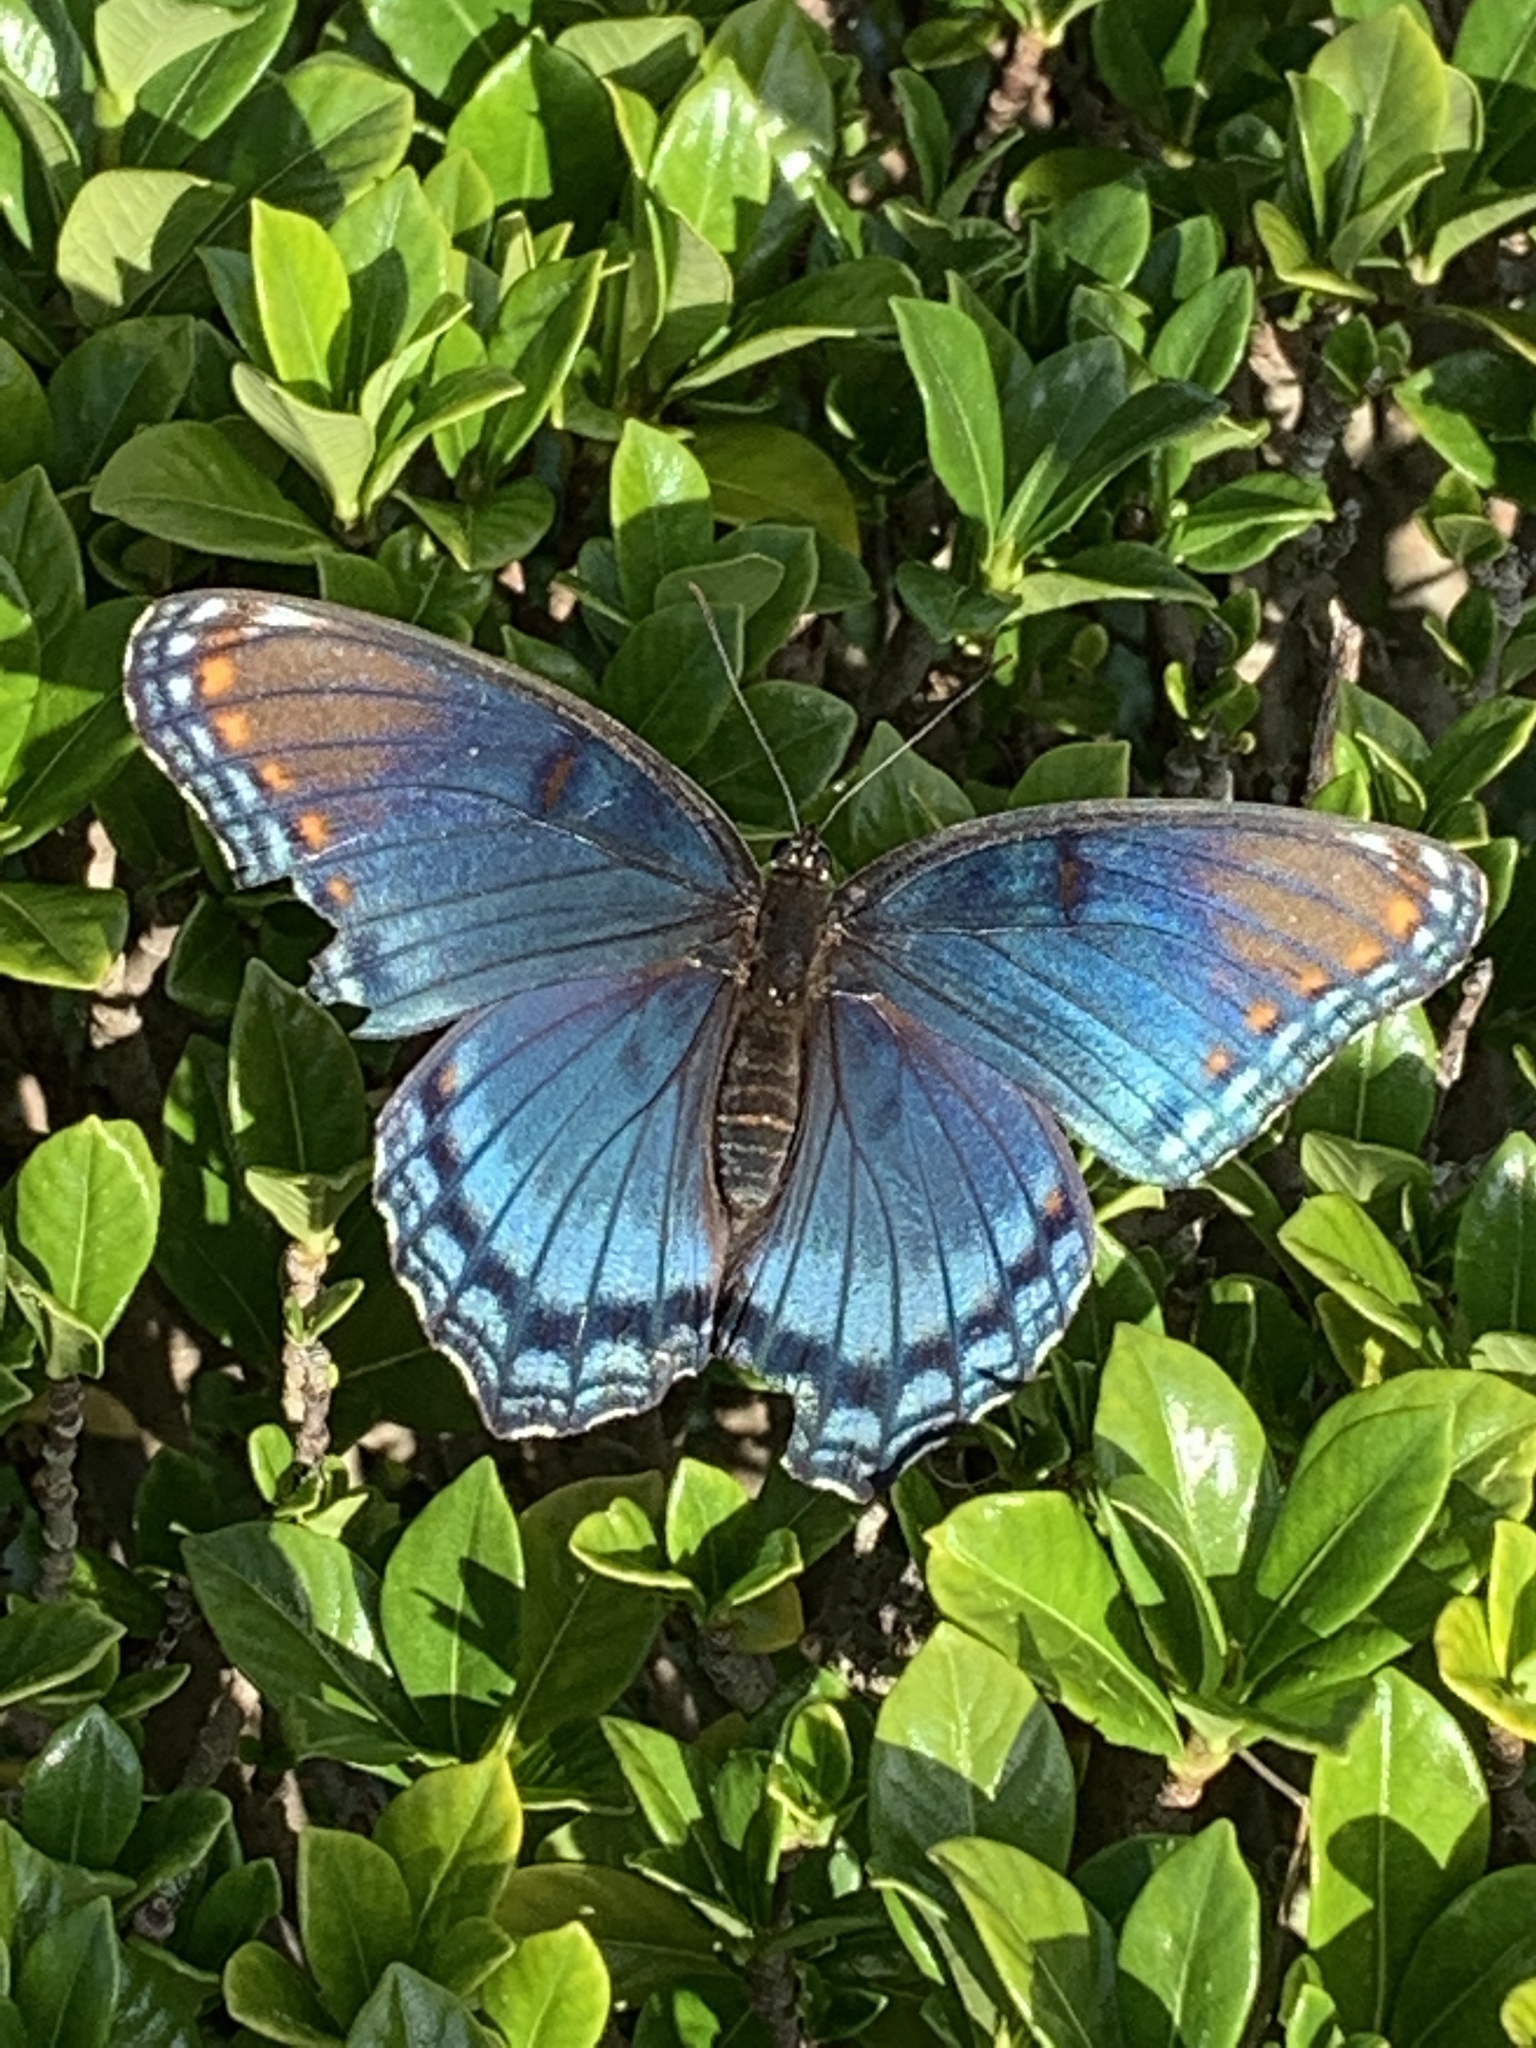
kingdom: Animalia
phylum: Arthropoda
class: Insecta
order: Lepidoptera
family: Nymphalidae
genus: Limenitis
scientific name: Limenitis arthemis
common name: Red-spotted admiral
